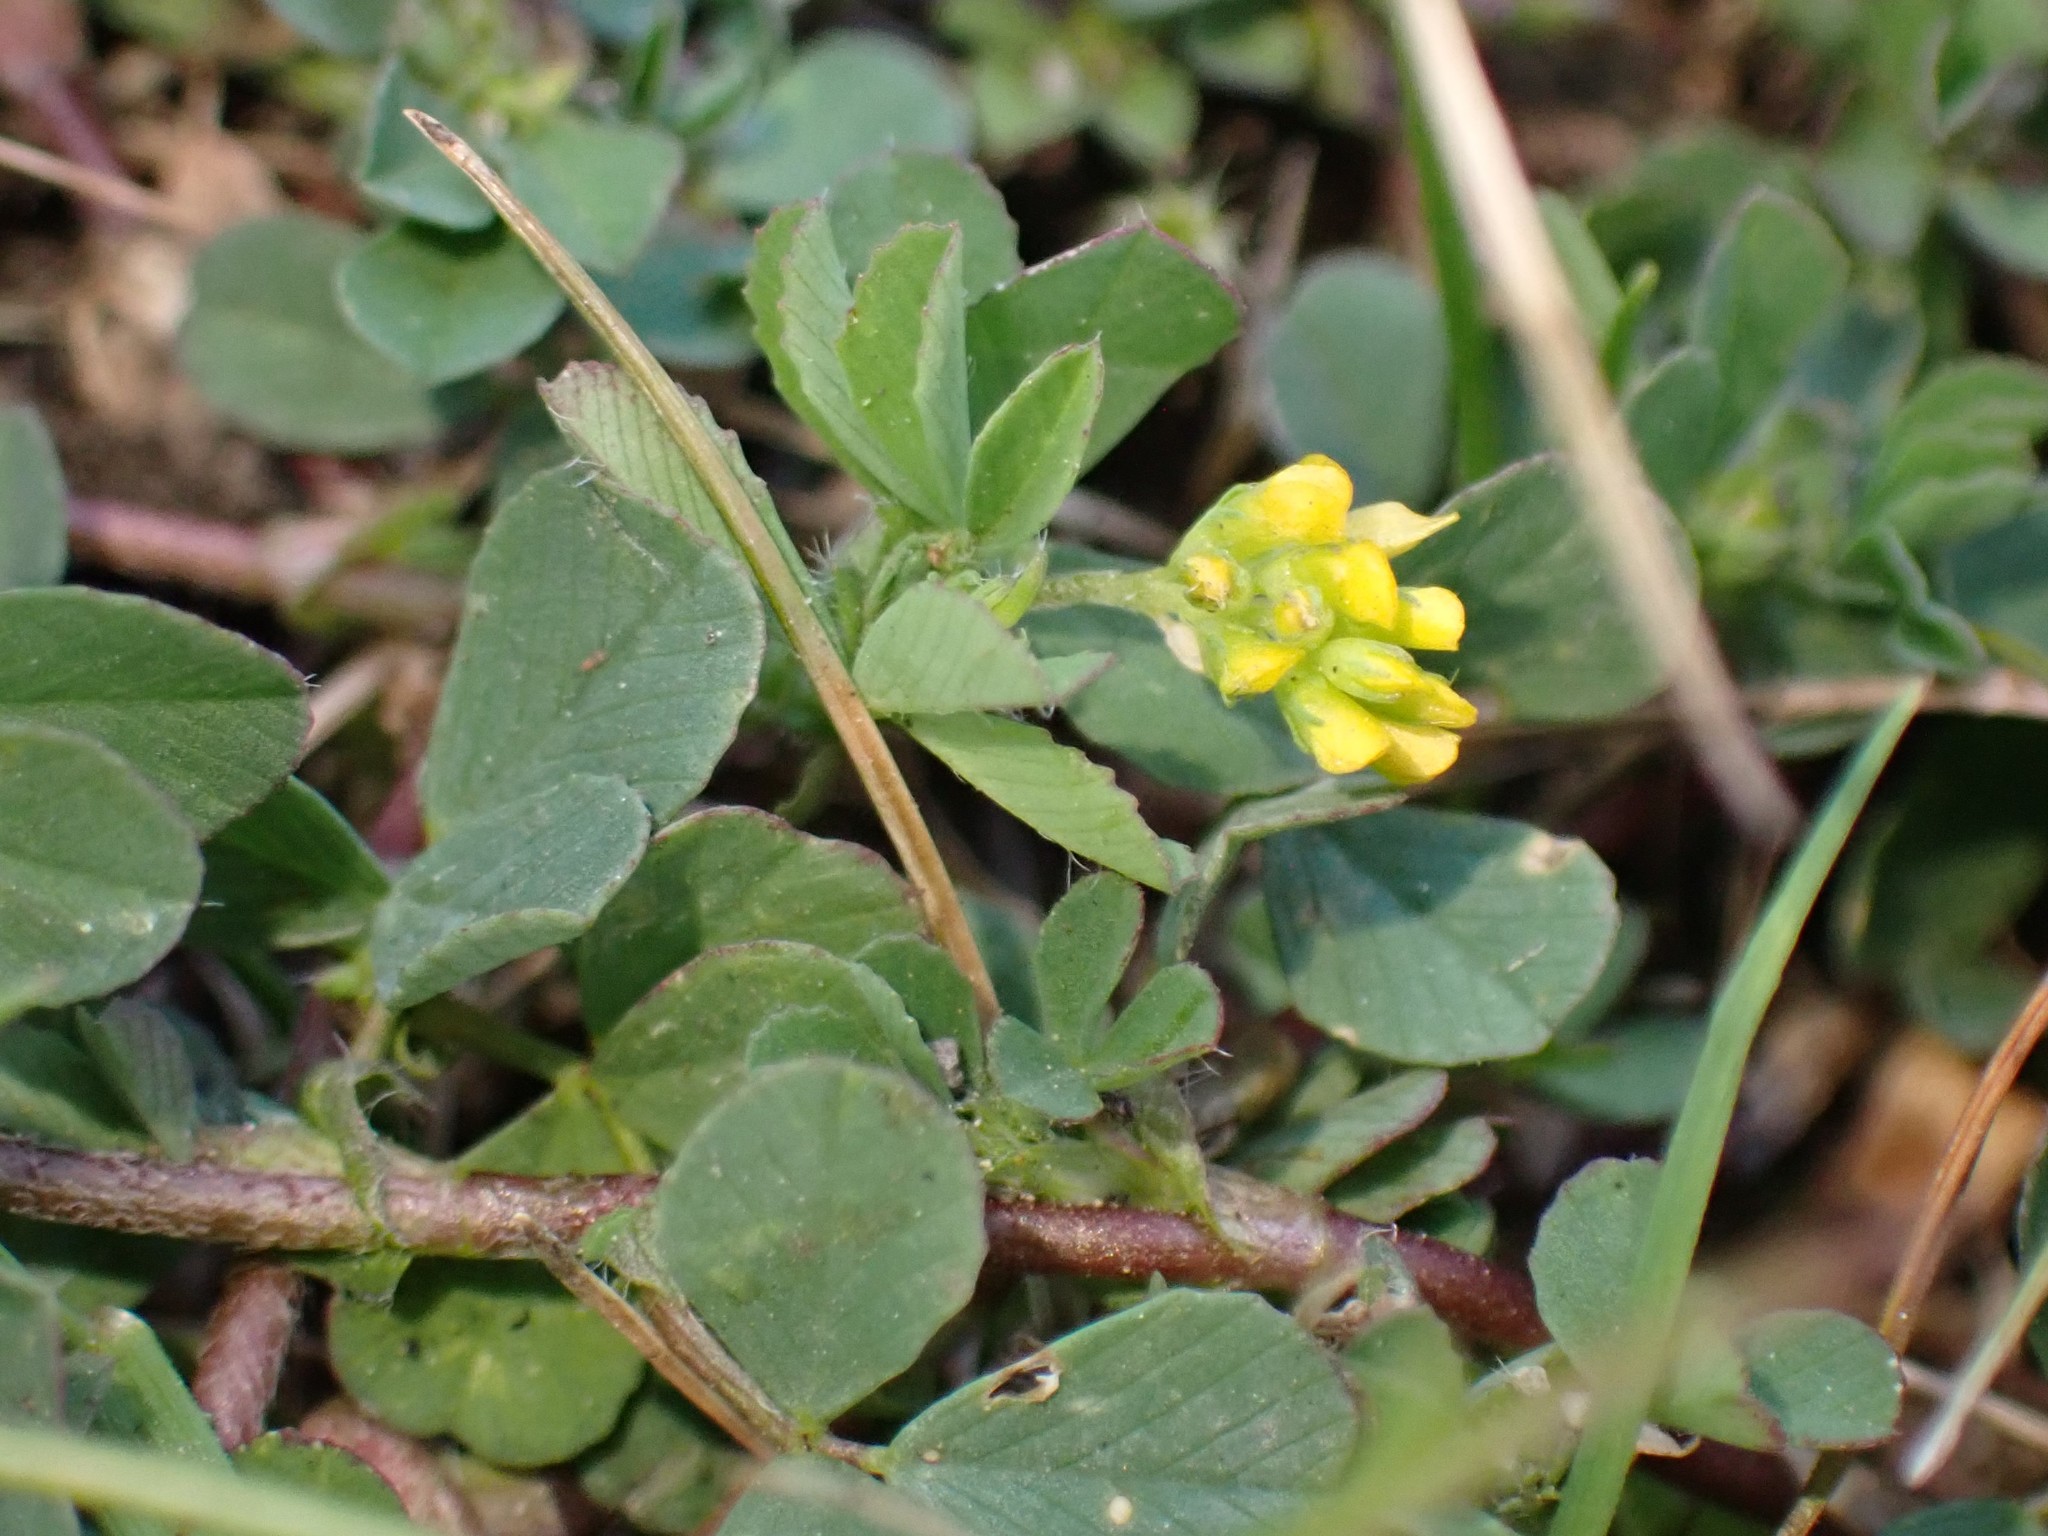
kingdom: Plantae
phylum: Tracheophyta
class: Magnoliopsida
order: Fabales
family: Fabaceae
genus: Trifolium
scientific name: Trifolium dubium
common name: Suckling clover
